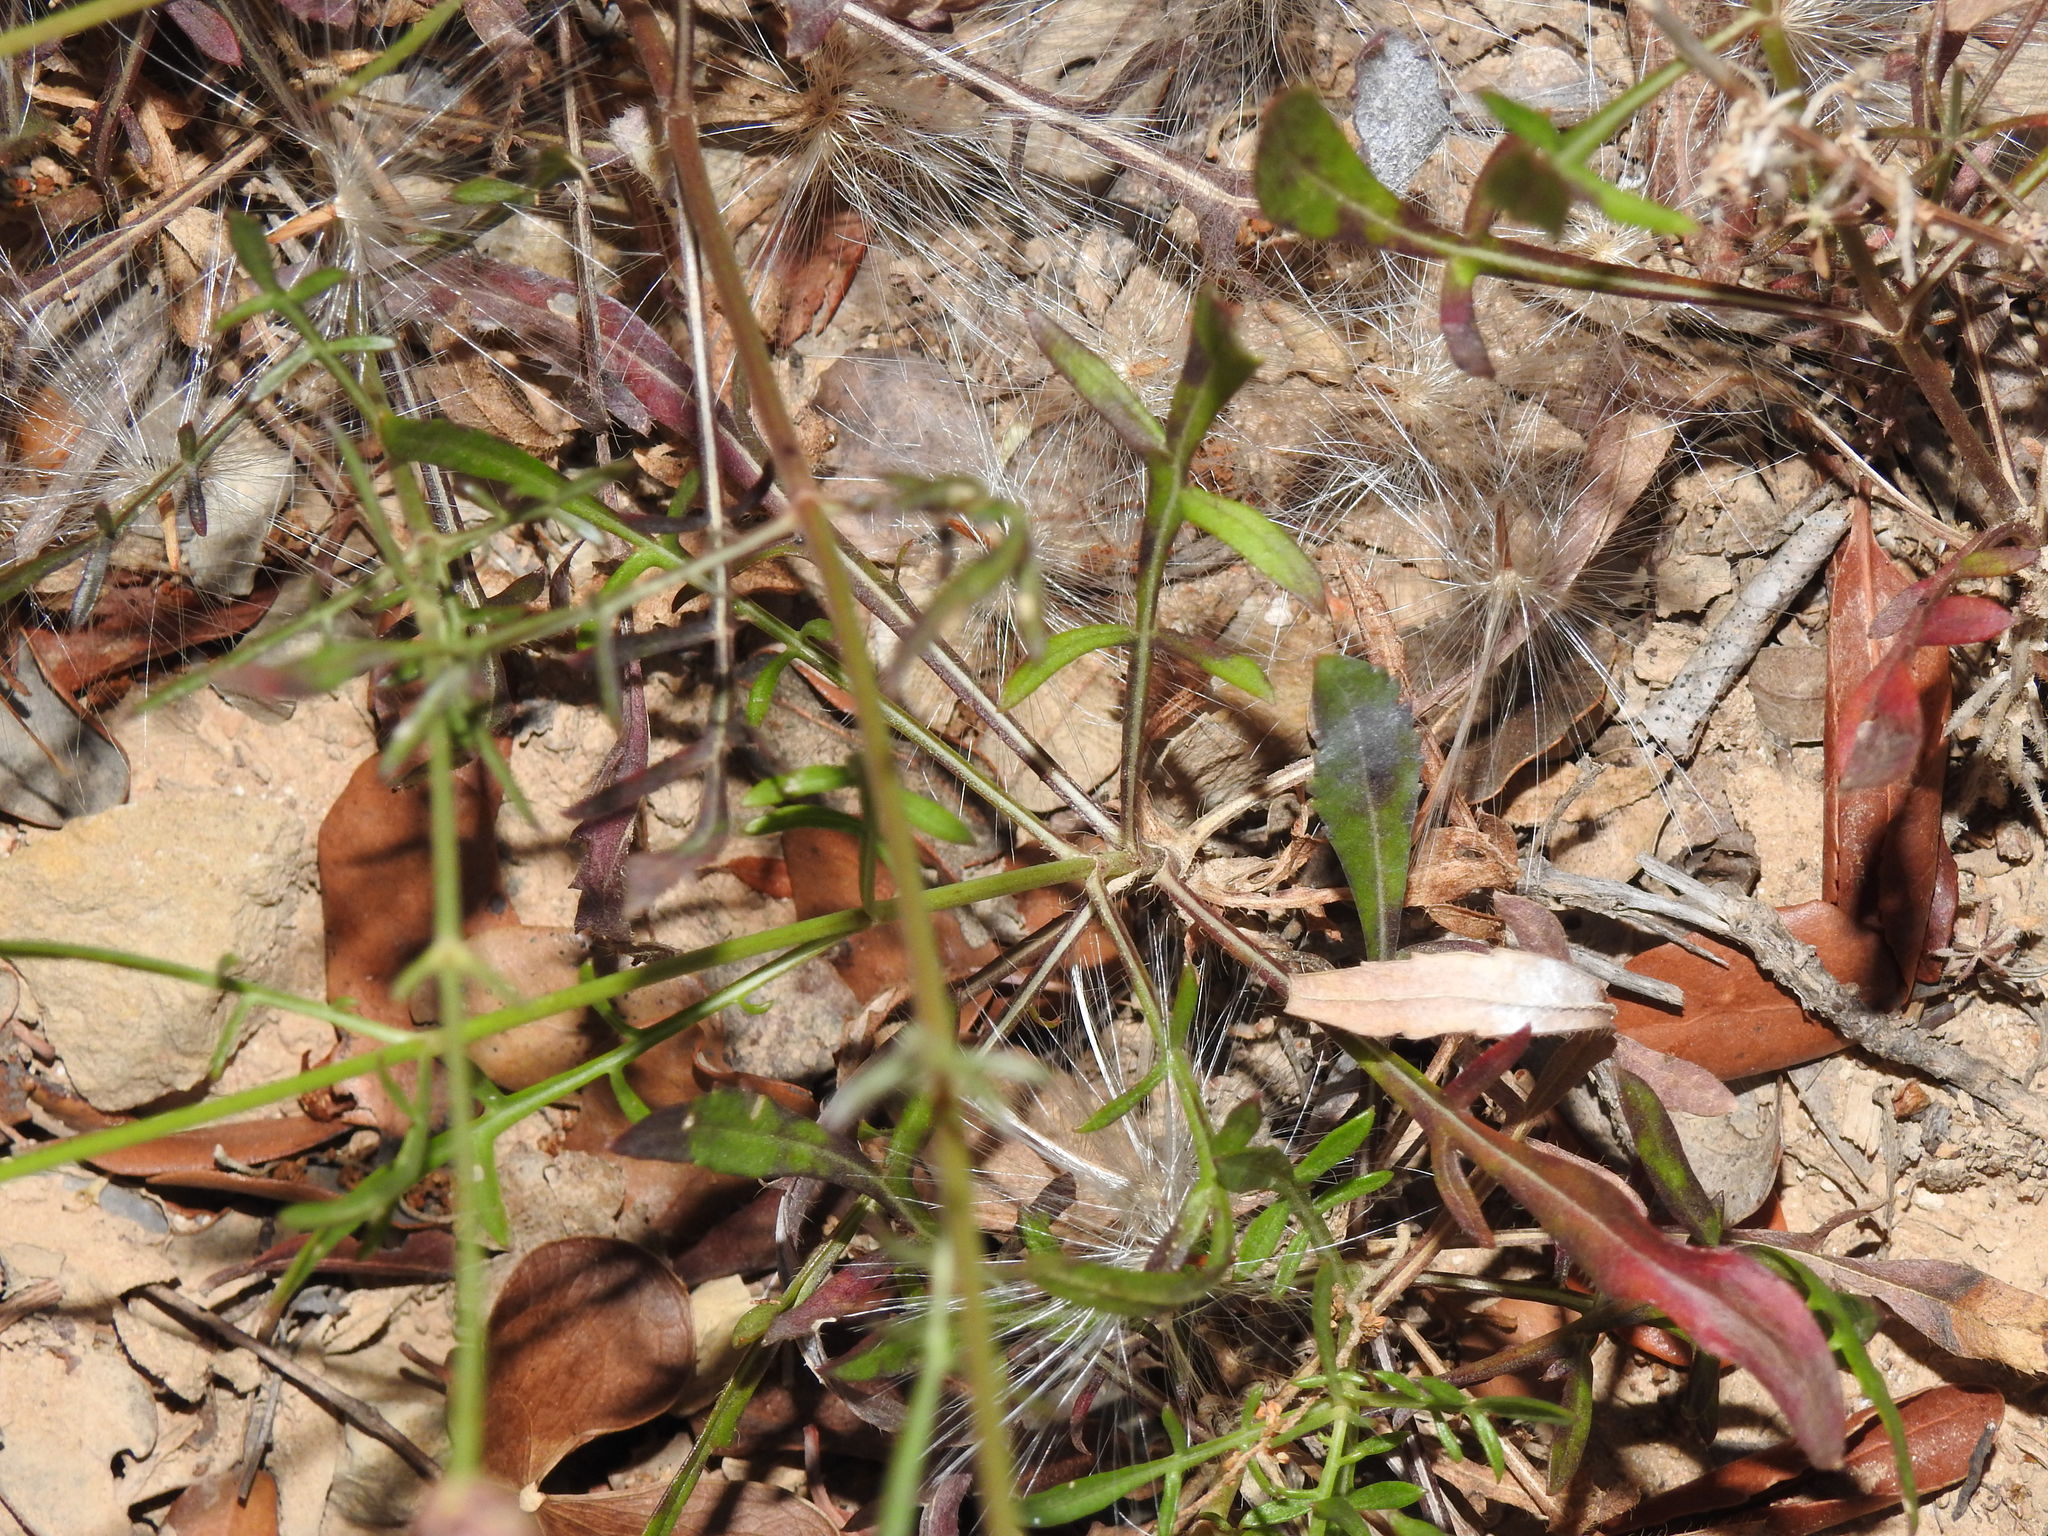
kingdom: Plantae
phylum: Tracheophyta
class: Magnoliopsida
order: Dipsacales
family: Caprifoliaceae
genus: Cephalaria
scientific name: Cephalaria leucantha
